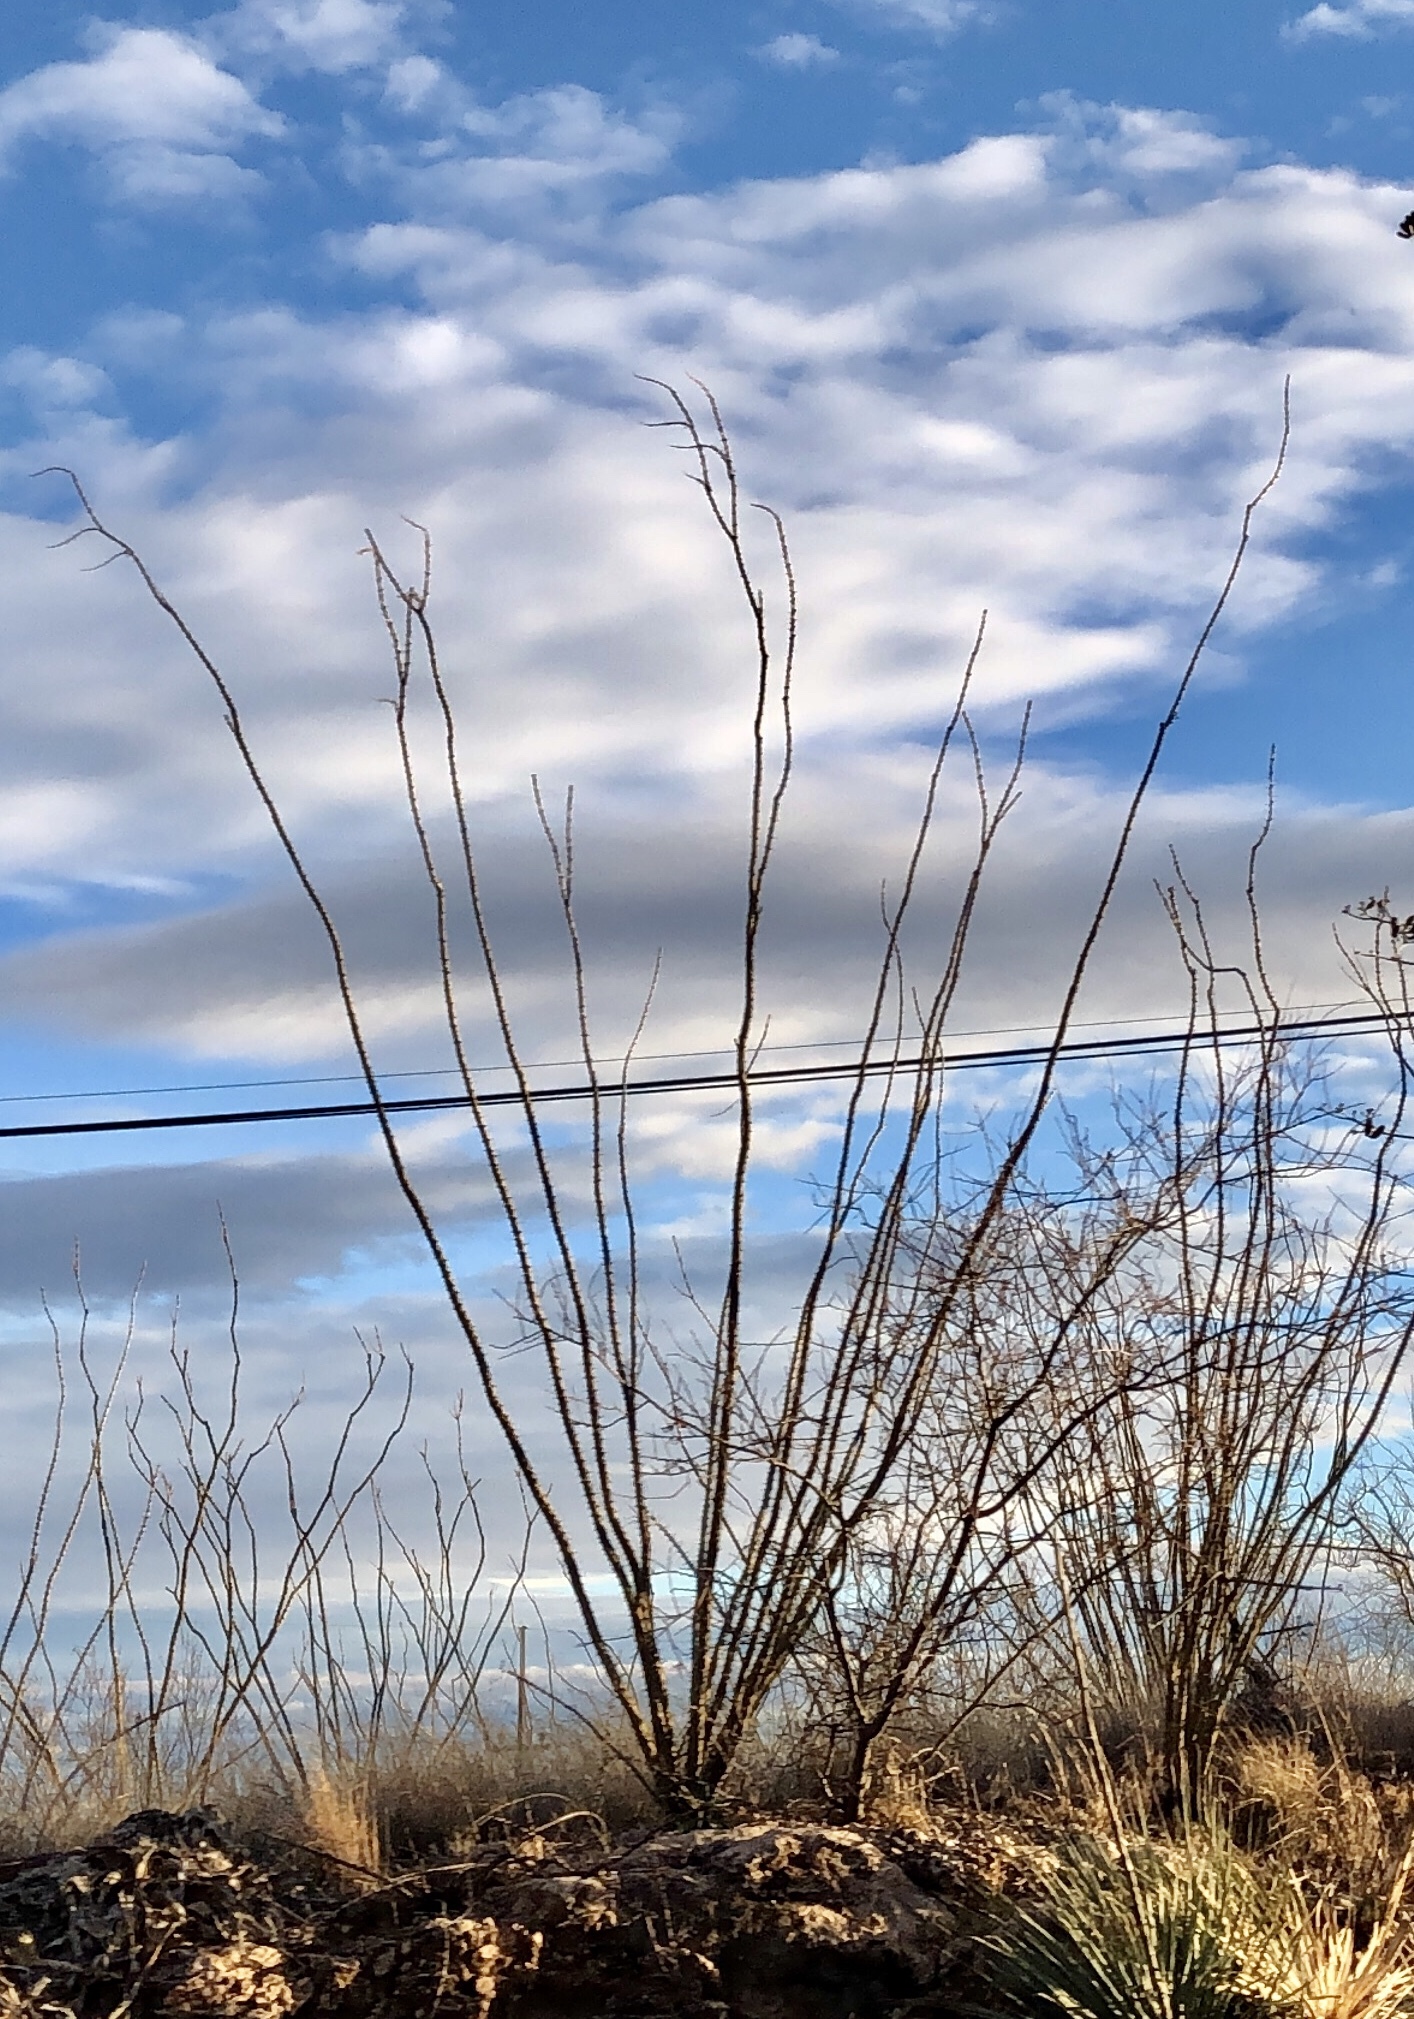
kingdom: Plantae
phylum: Tracheophyta
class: Magnoliopsida
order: Ericales
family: Fouquieriaceae
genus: Fouquieria
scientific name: Fouquieria splendens
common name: Vine-cactus
